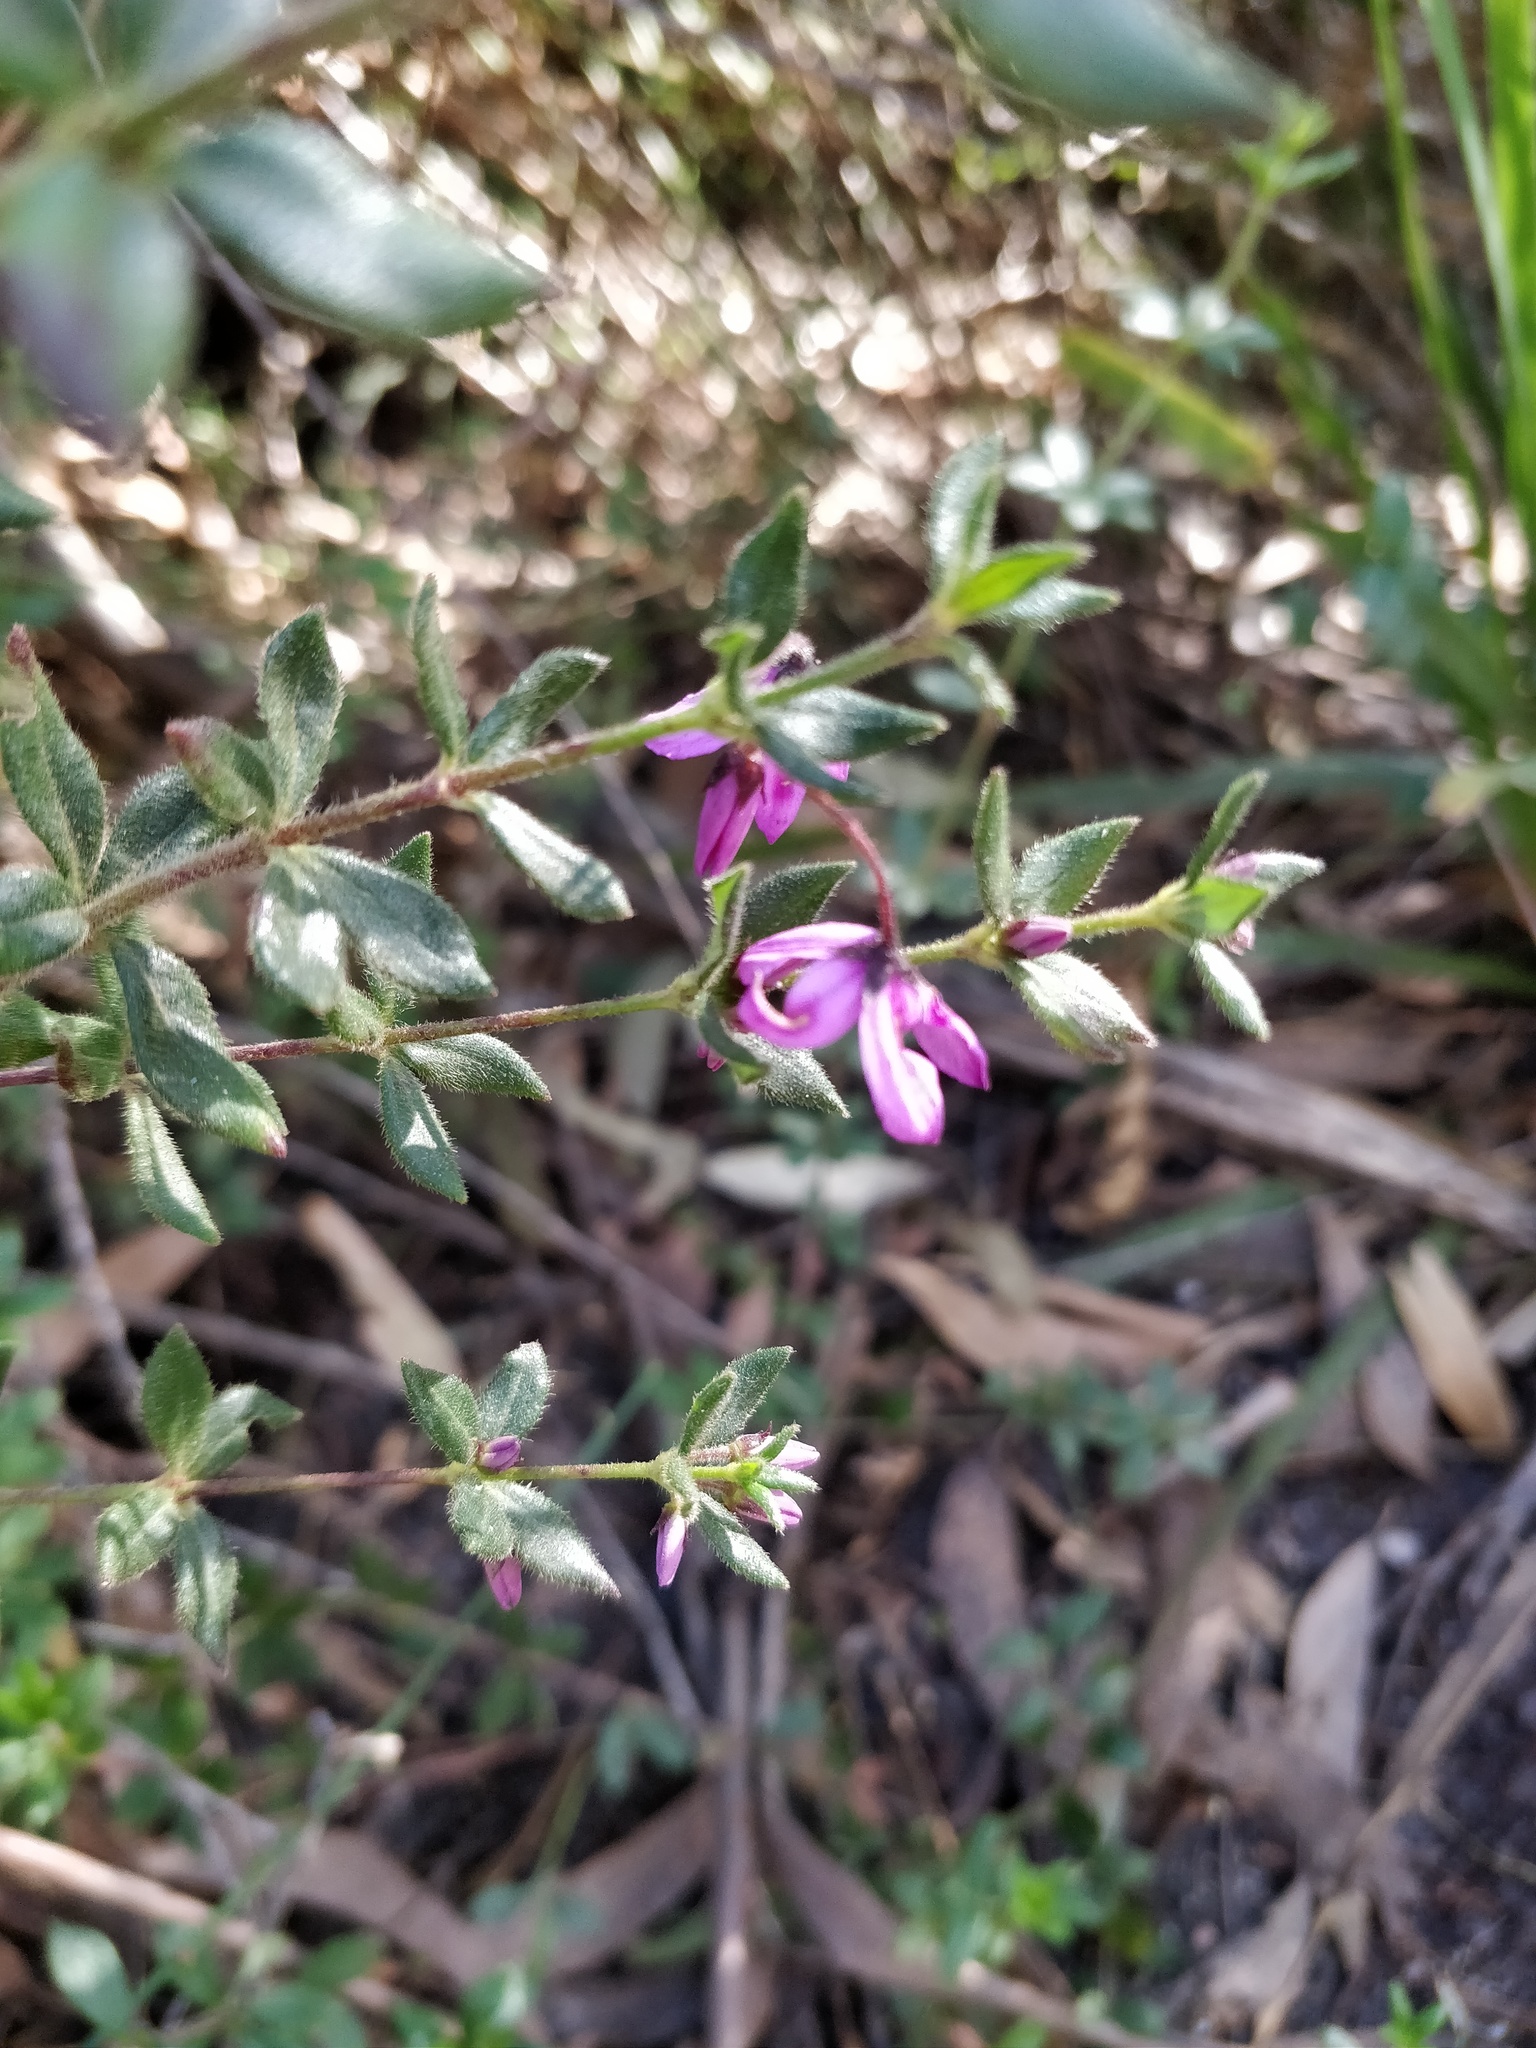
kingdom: Plantae
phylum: Tracheophyta
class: Magnoliopsida
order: Oxalidales
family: Elaeocarpaceae
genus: Tetratheca
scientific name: Tetratheca thymifolia
